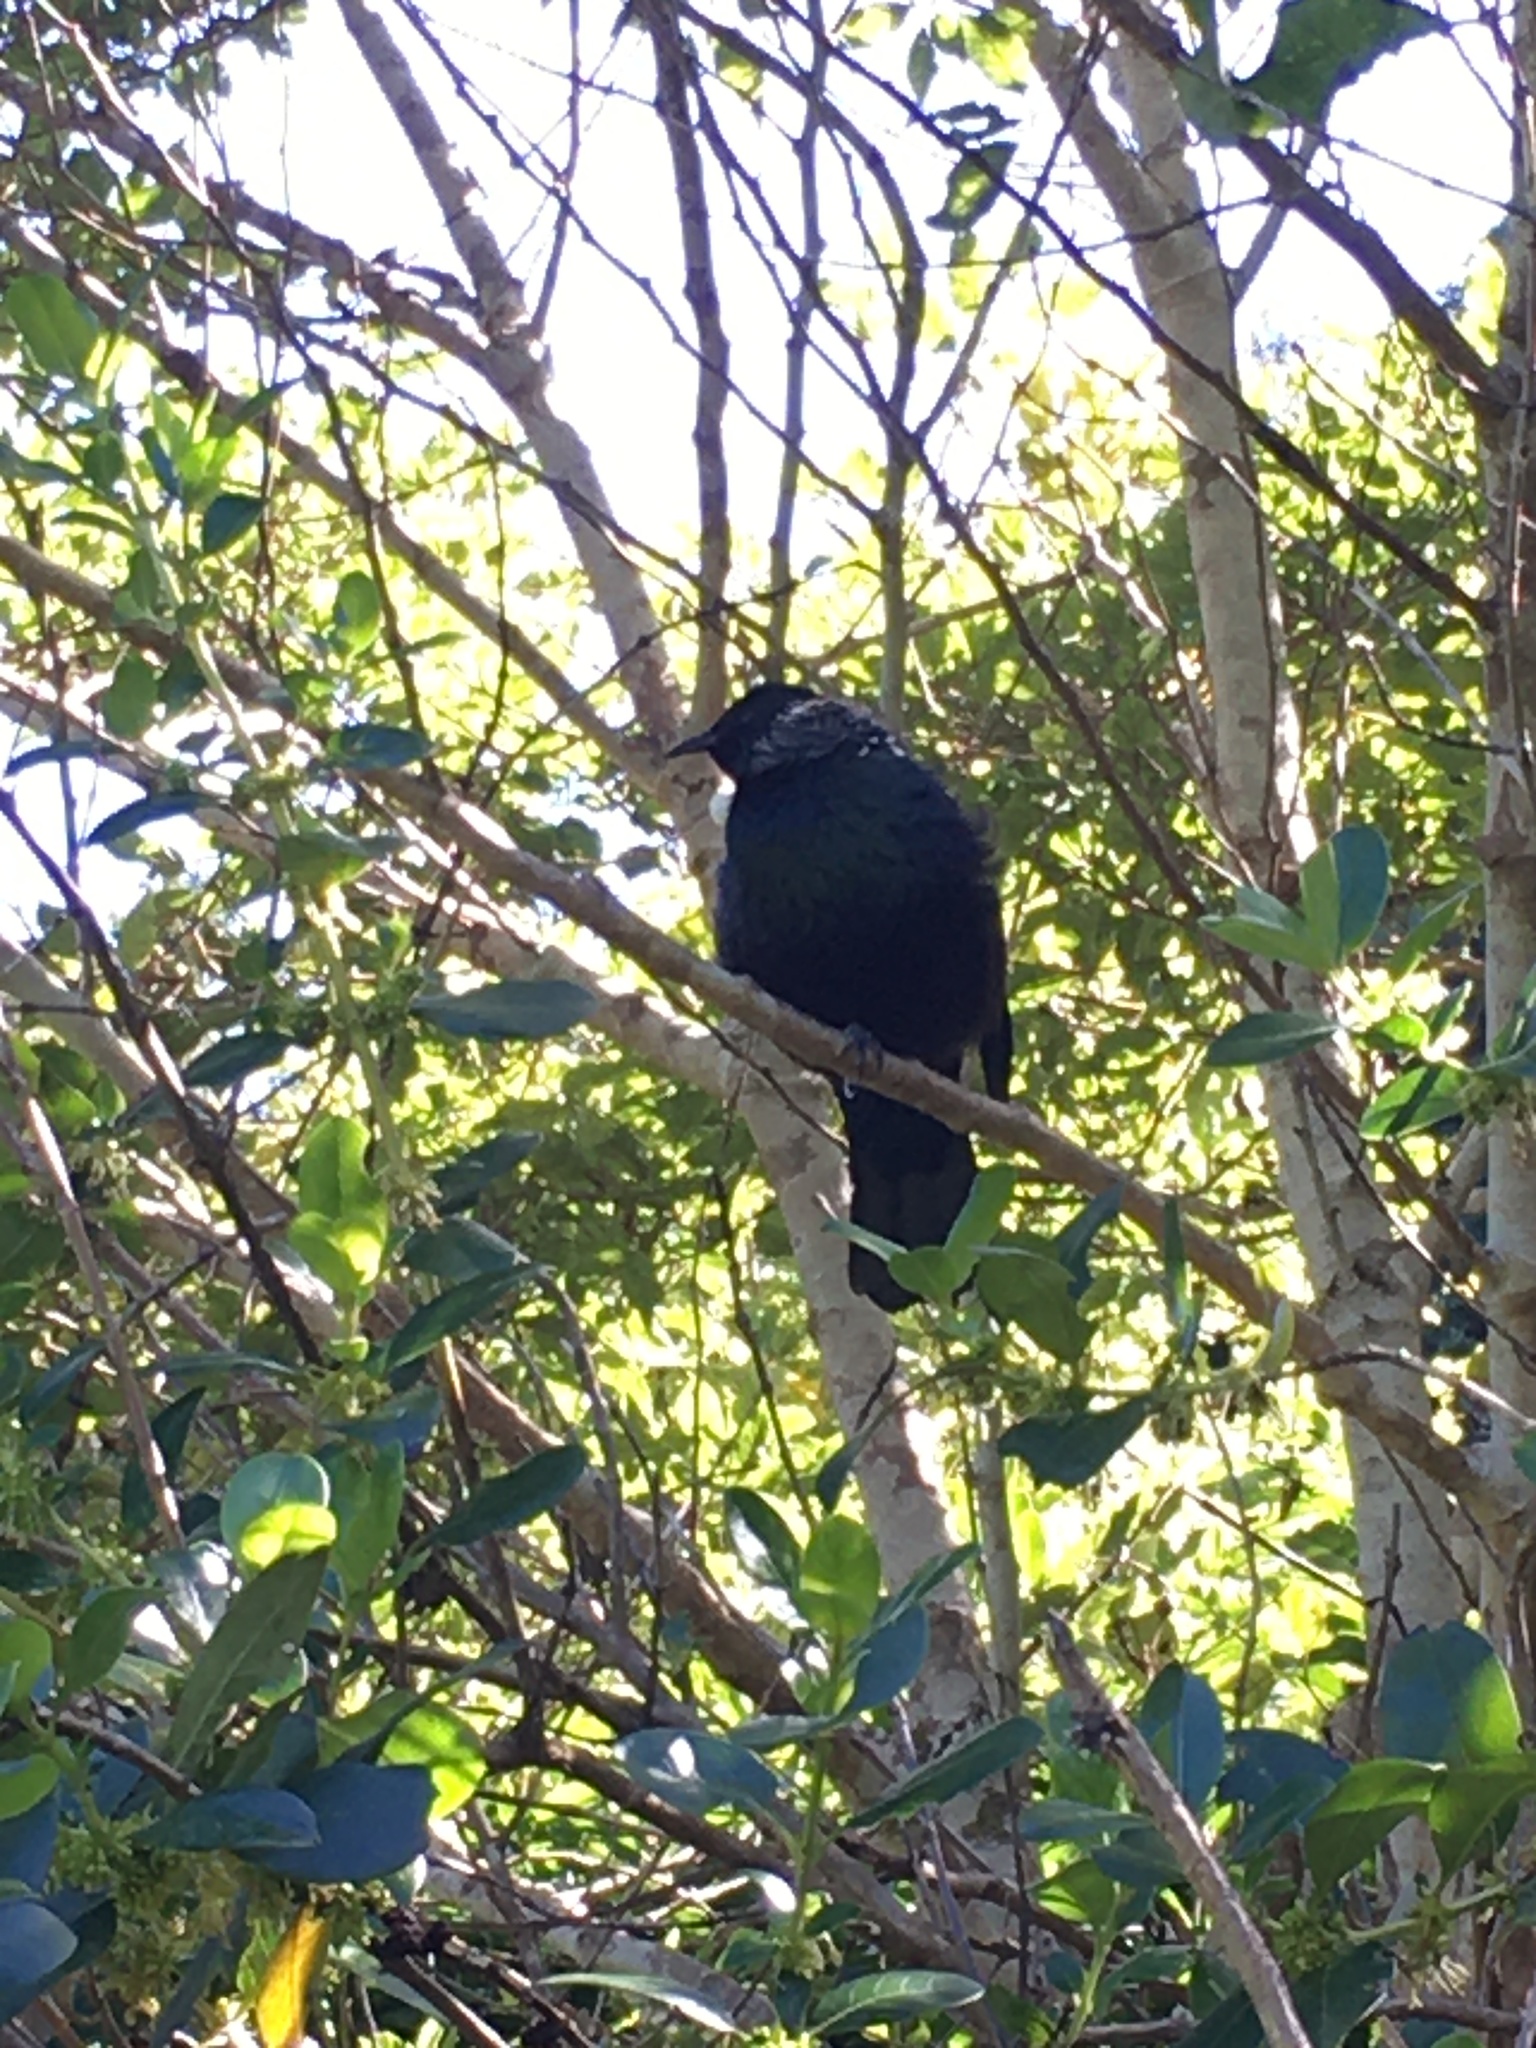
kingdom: Animalia
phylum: Chordata
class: Aves
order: Passeriformes
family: Meliphagidae
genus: Prosthemadera
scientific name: Prosthemadera novaeseelandiae
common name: Tui
